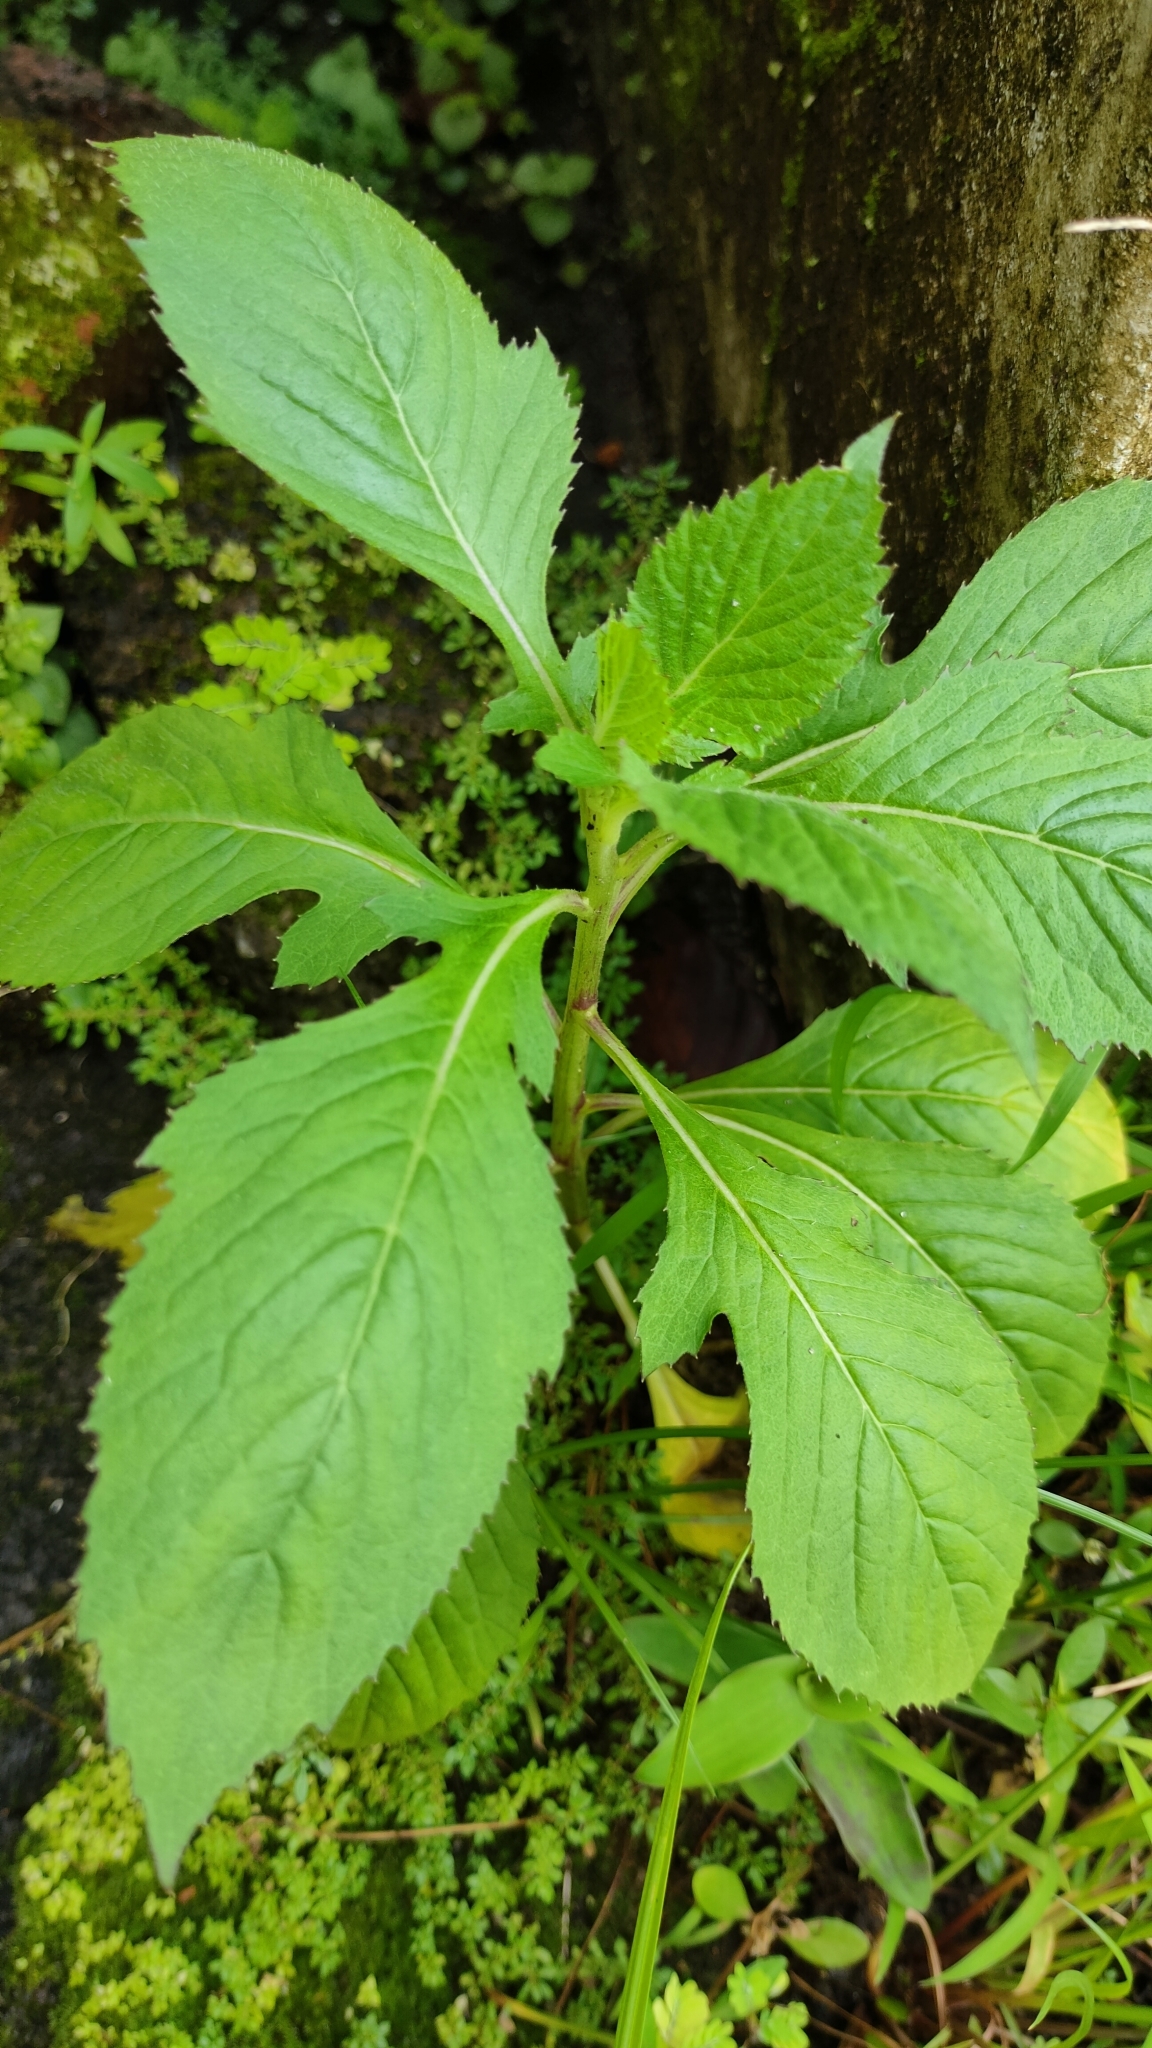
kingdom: Plantae
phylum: Tracheophyta
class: Magnoliopsida
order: Asterales
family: Asteraceae
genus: Crassocephalum
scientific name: Crassocephalum crepidioides
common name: Redflower ragleaf
